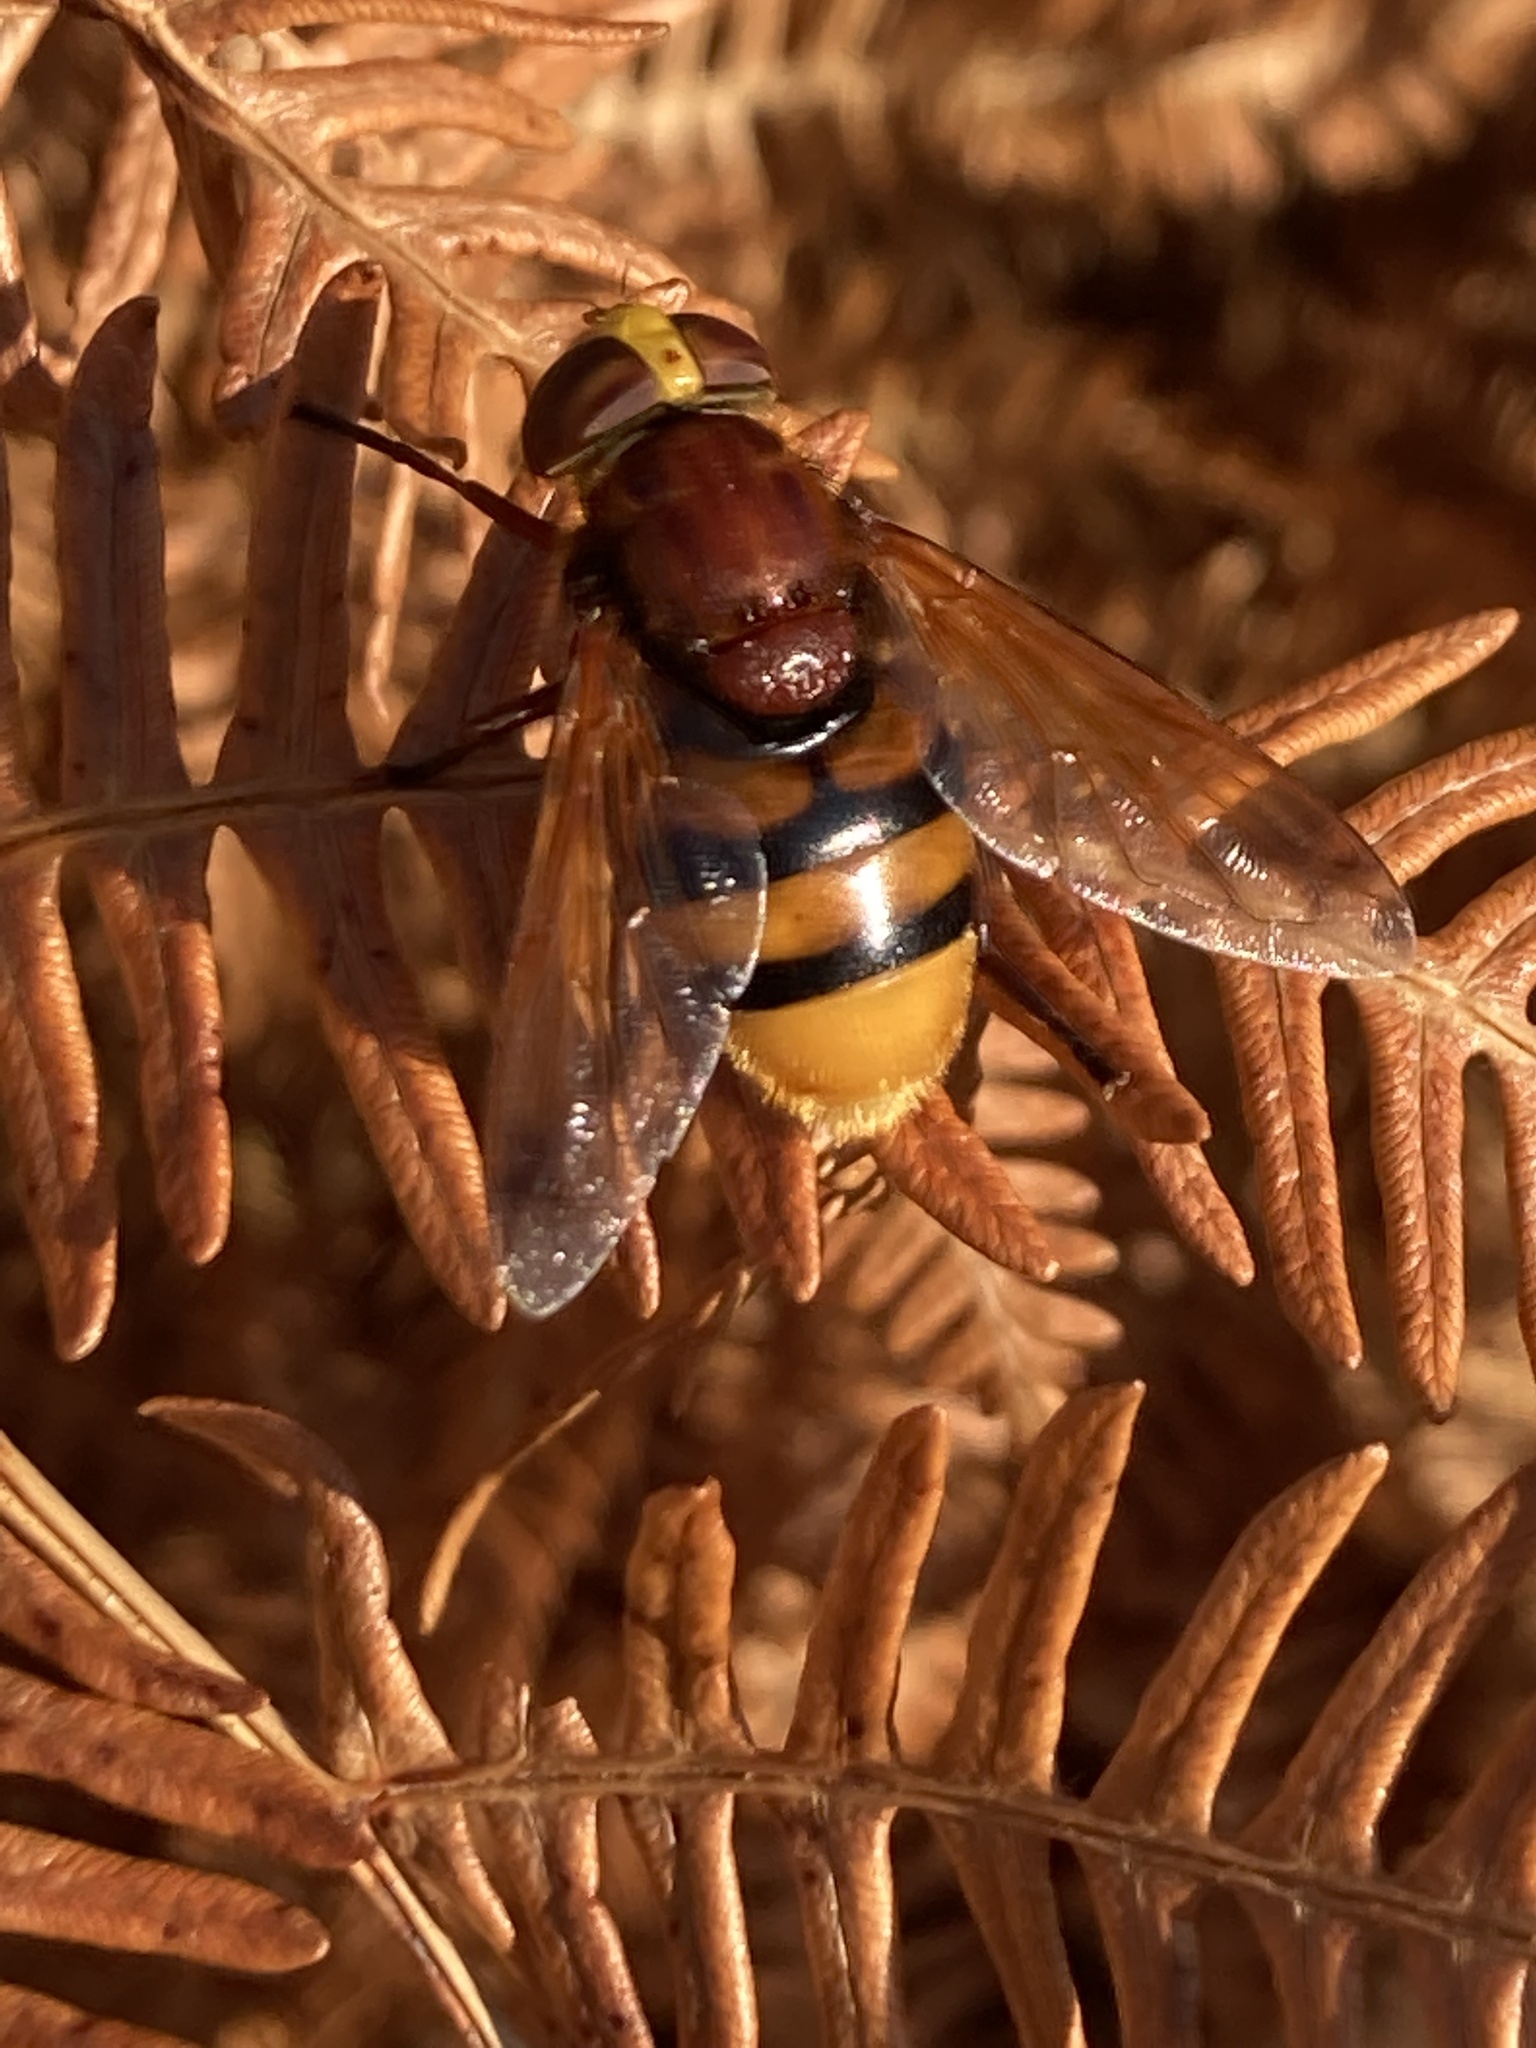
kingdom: Animalia
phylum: Arthropoda
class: Insecta
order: Diptera
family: Syrphidae
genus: Volucella
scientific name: Volucella zonaria
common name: Hornet hoverfly
